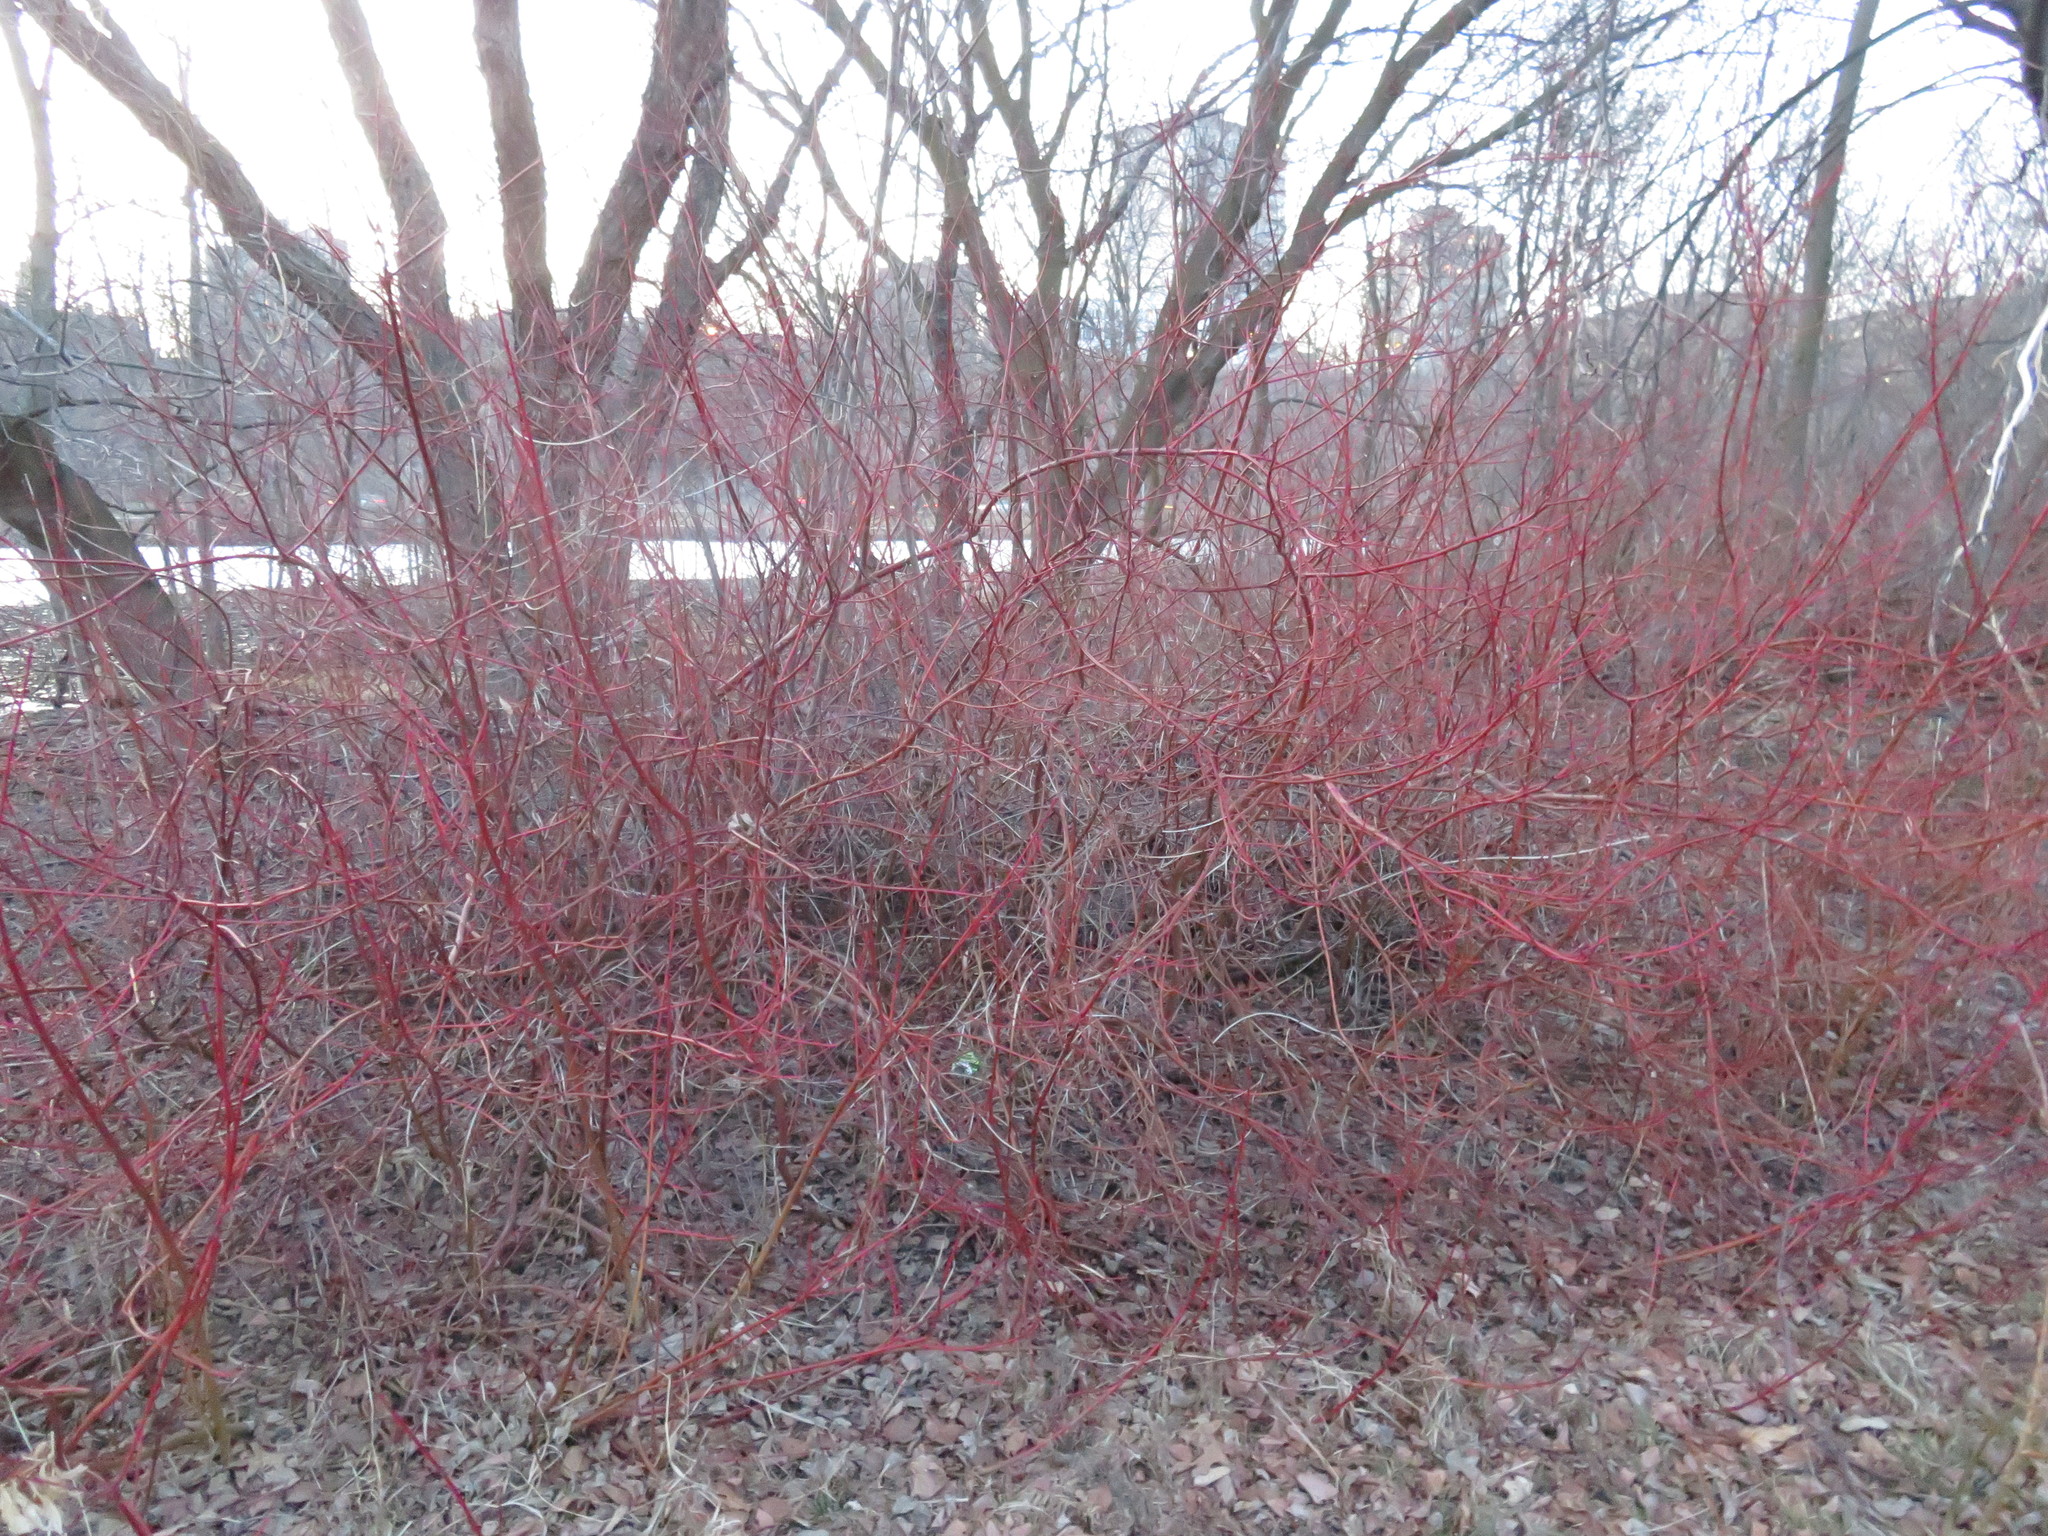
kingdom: Plantae
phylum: Tracheophyta
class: Magnoliopsida
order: Cornales
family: Cornaceae
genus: Cornus
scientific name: Cornus sericea
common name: Red-osier dogwood
